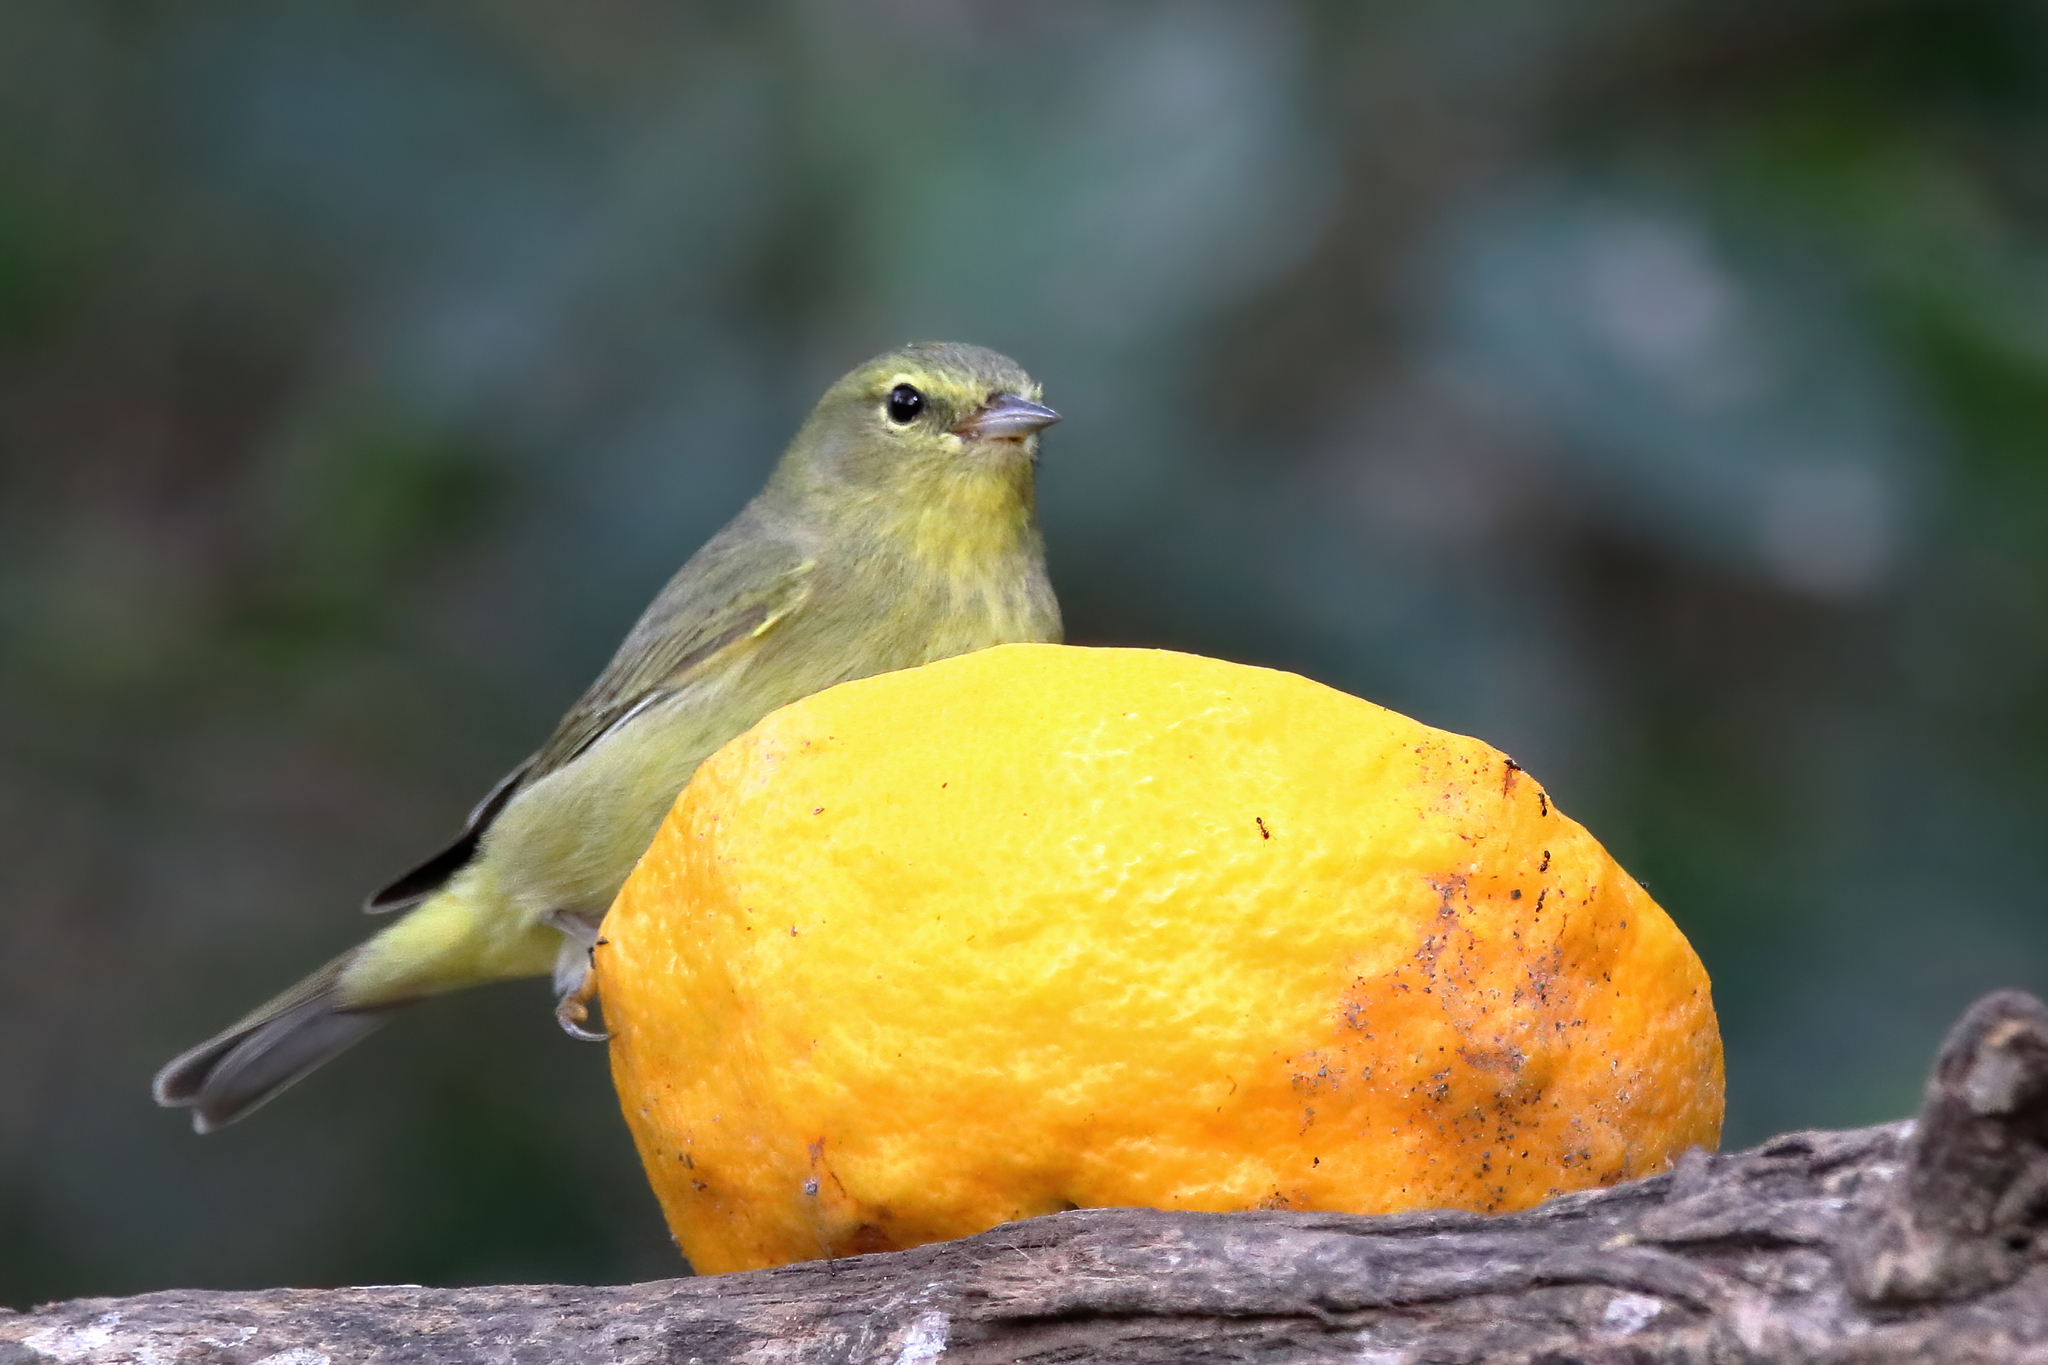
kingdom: Animalia
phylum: Chordata
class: Aves
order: Passeriformes
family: Parulidae
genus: Leiothlypis
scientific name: Leiothlypis celata
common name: Orange-crowned warbler
